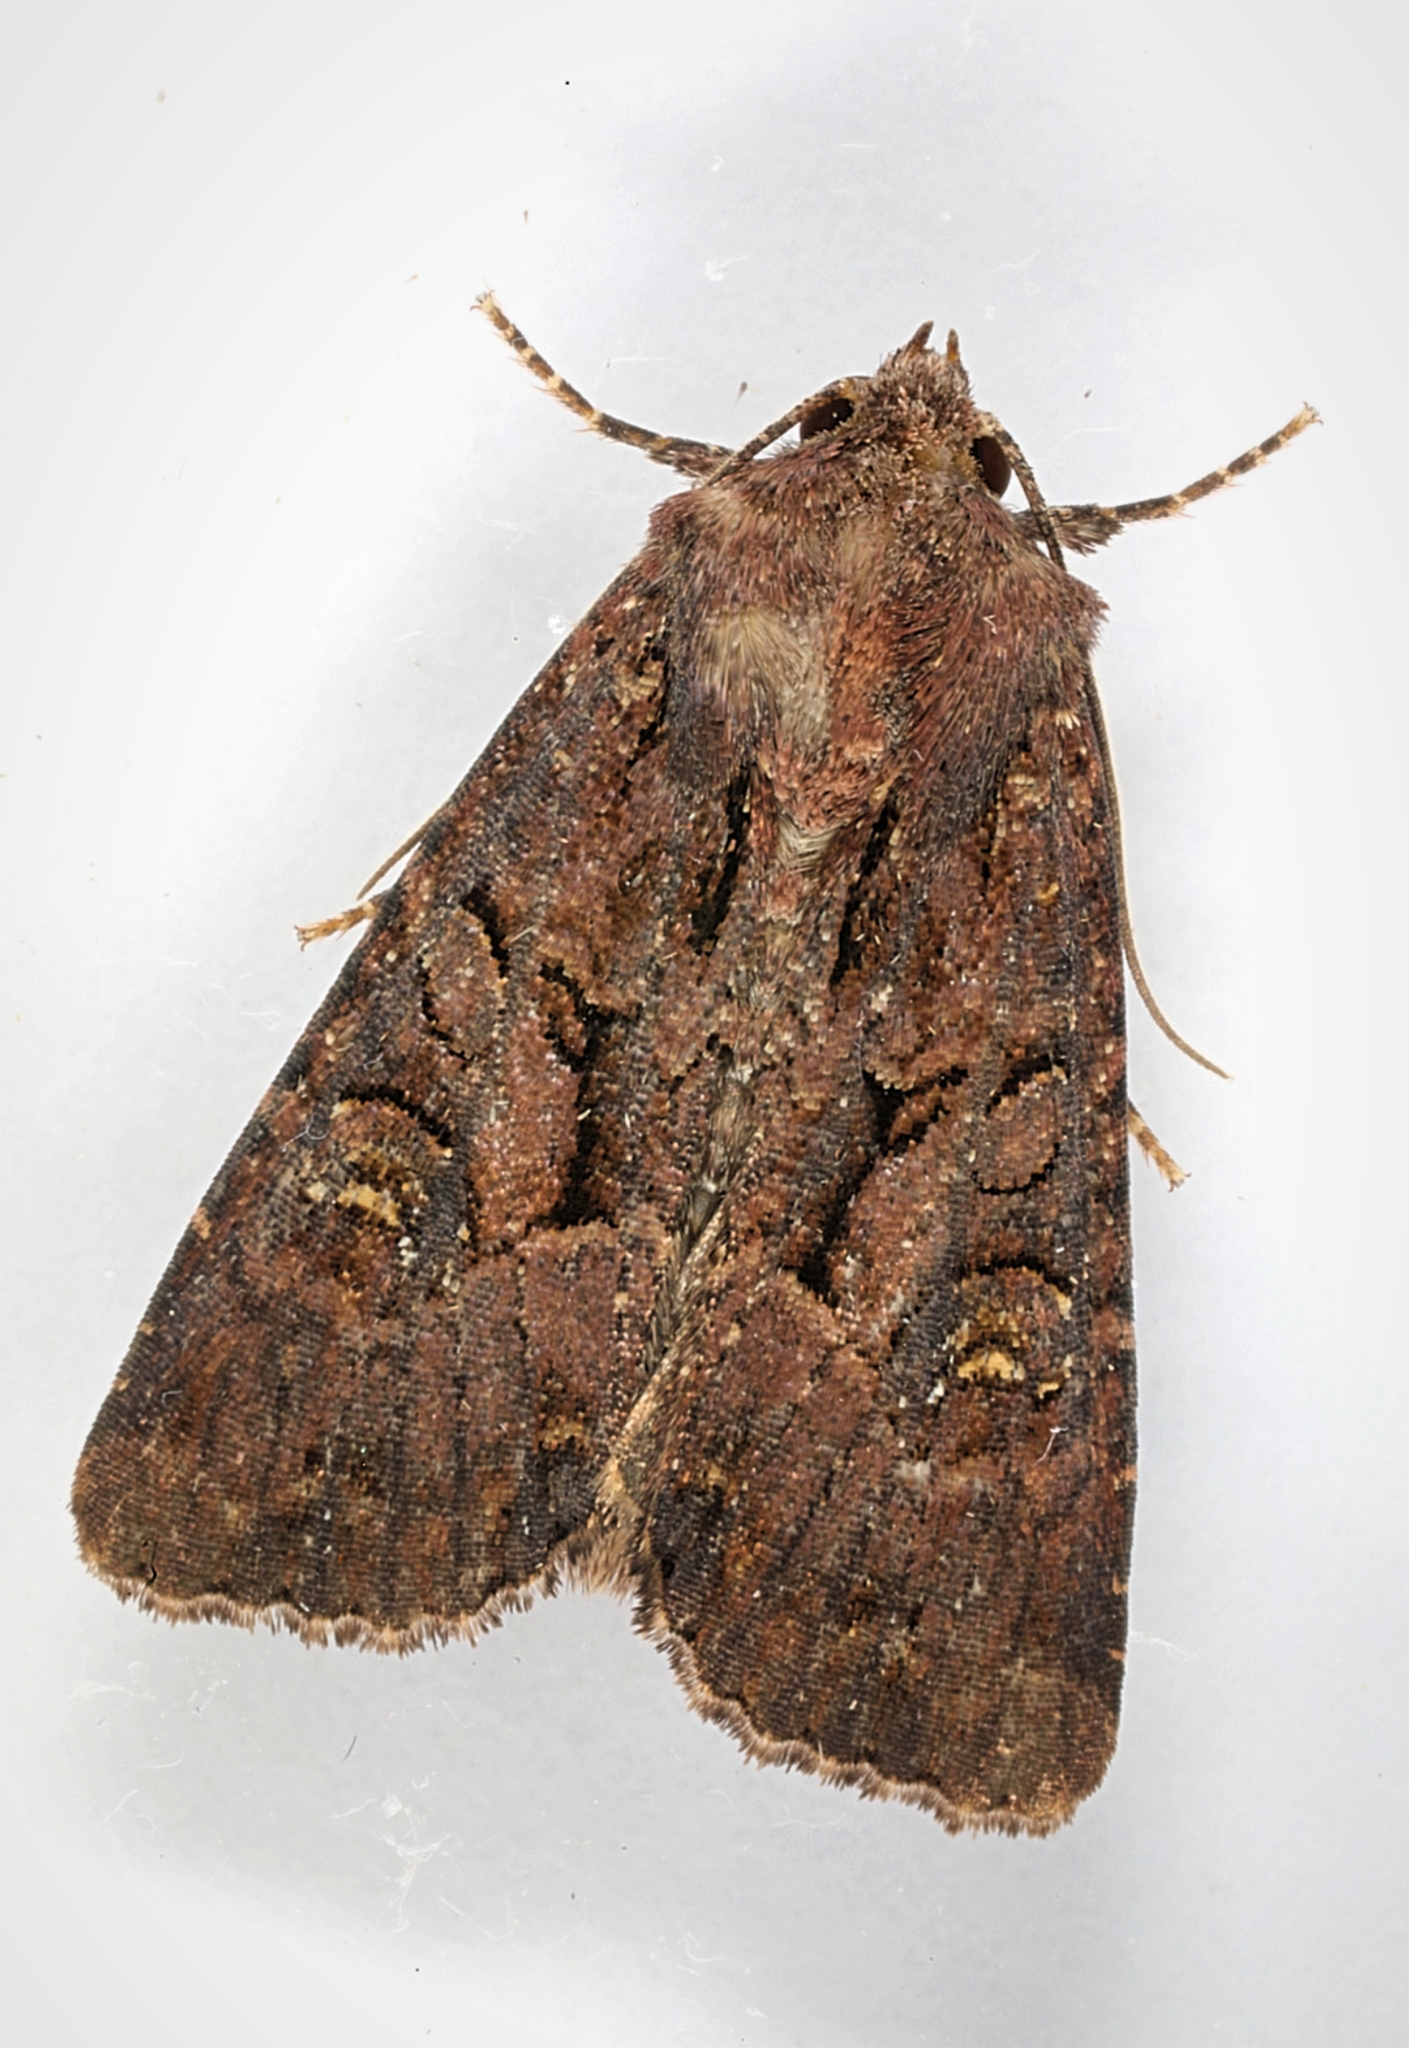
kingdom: Animalia
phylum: Arthropoda
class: Insecta
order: Lepidoptera
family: Noctuidae
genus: Mesapamea
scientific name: Mesapamea
